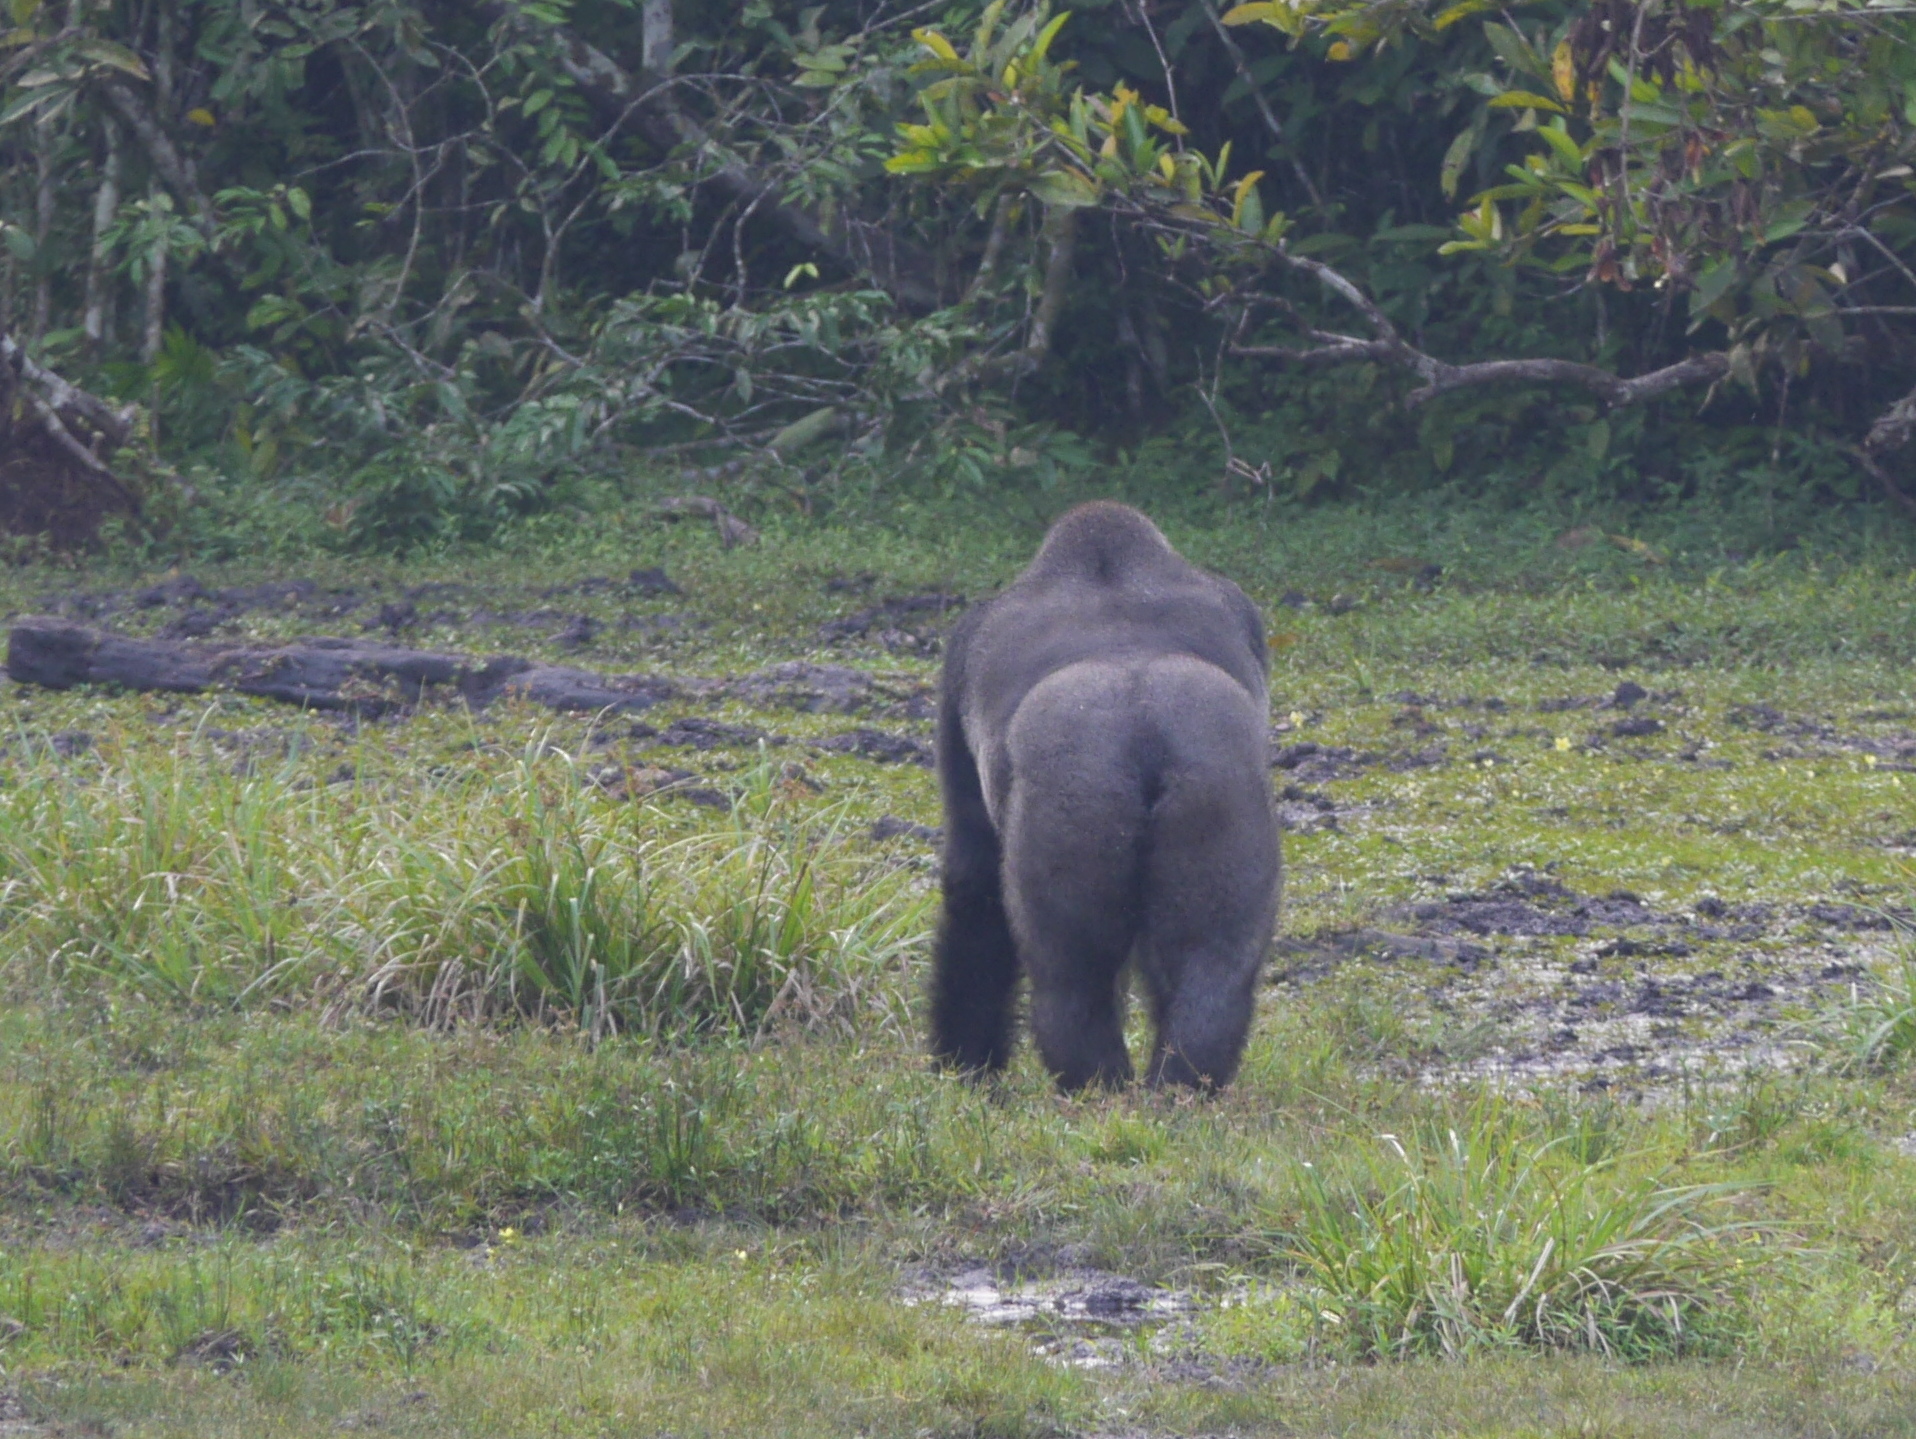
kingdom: Animalia
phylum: Chordata
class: Mammalia
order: Primates
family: Hominidae
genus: Gorilla
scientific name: Gorilla gorilla
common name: Western gorilla
